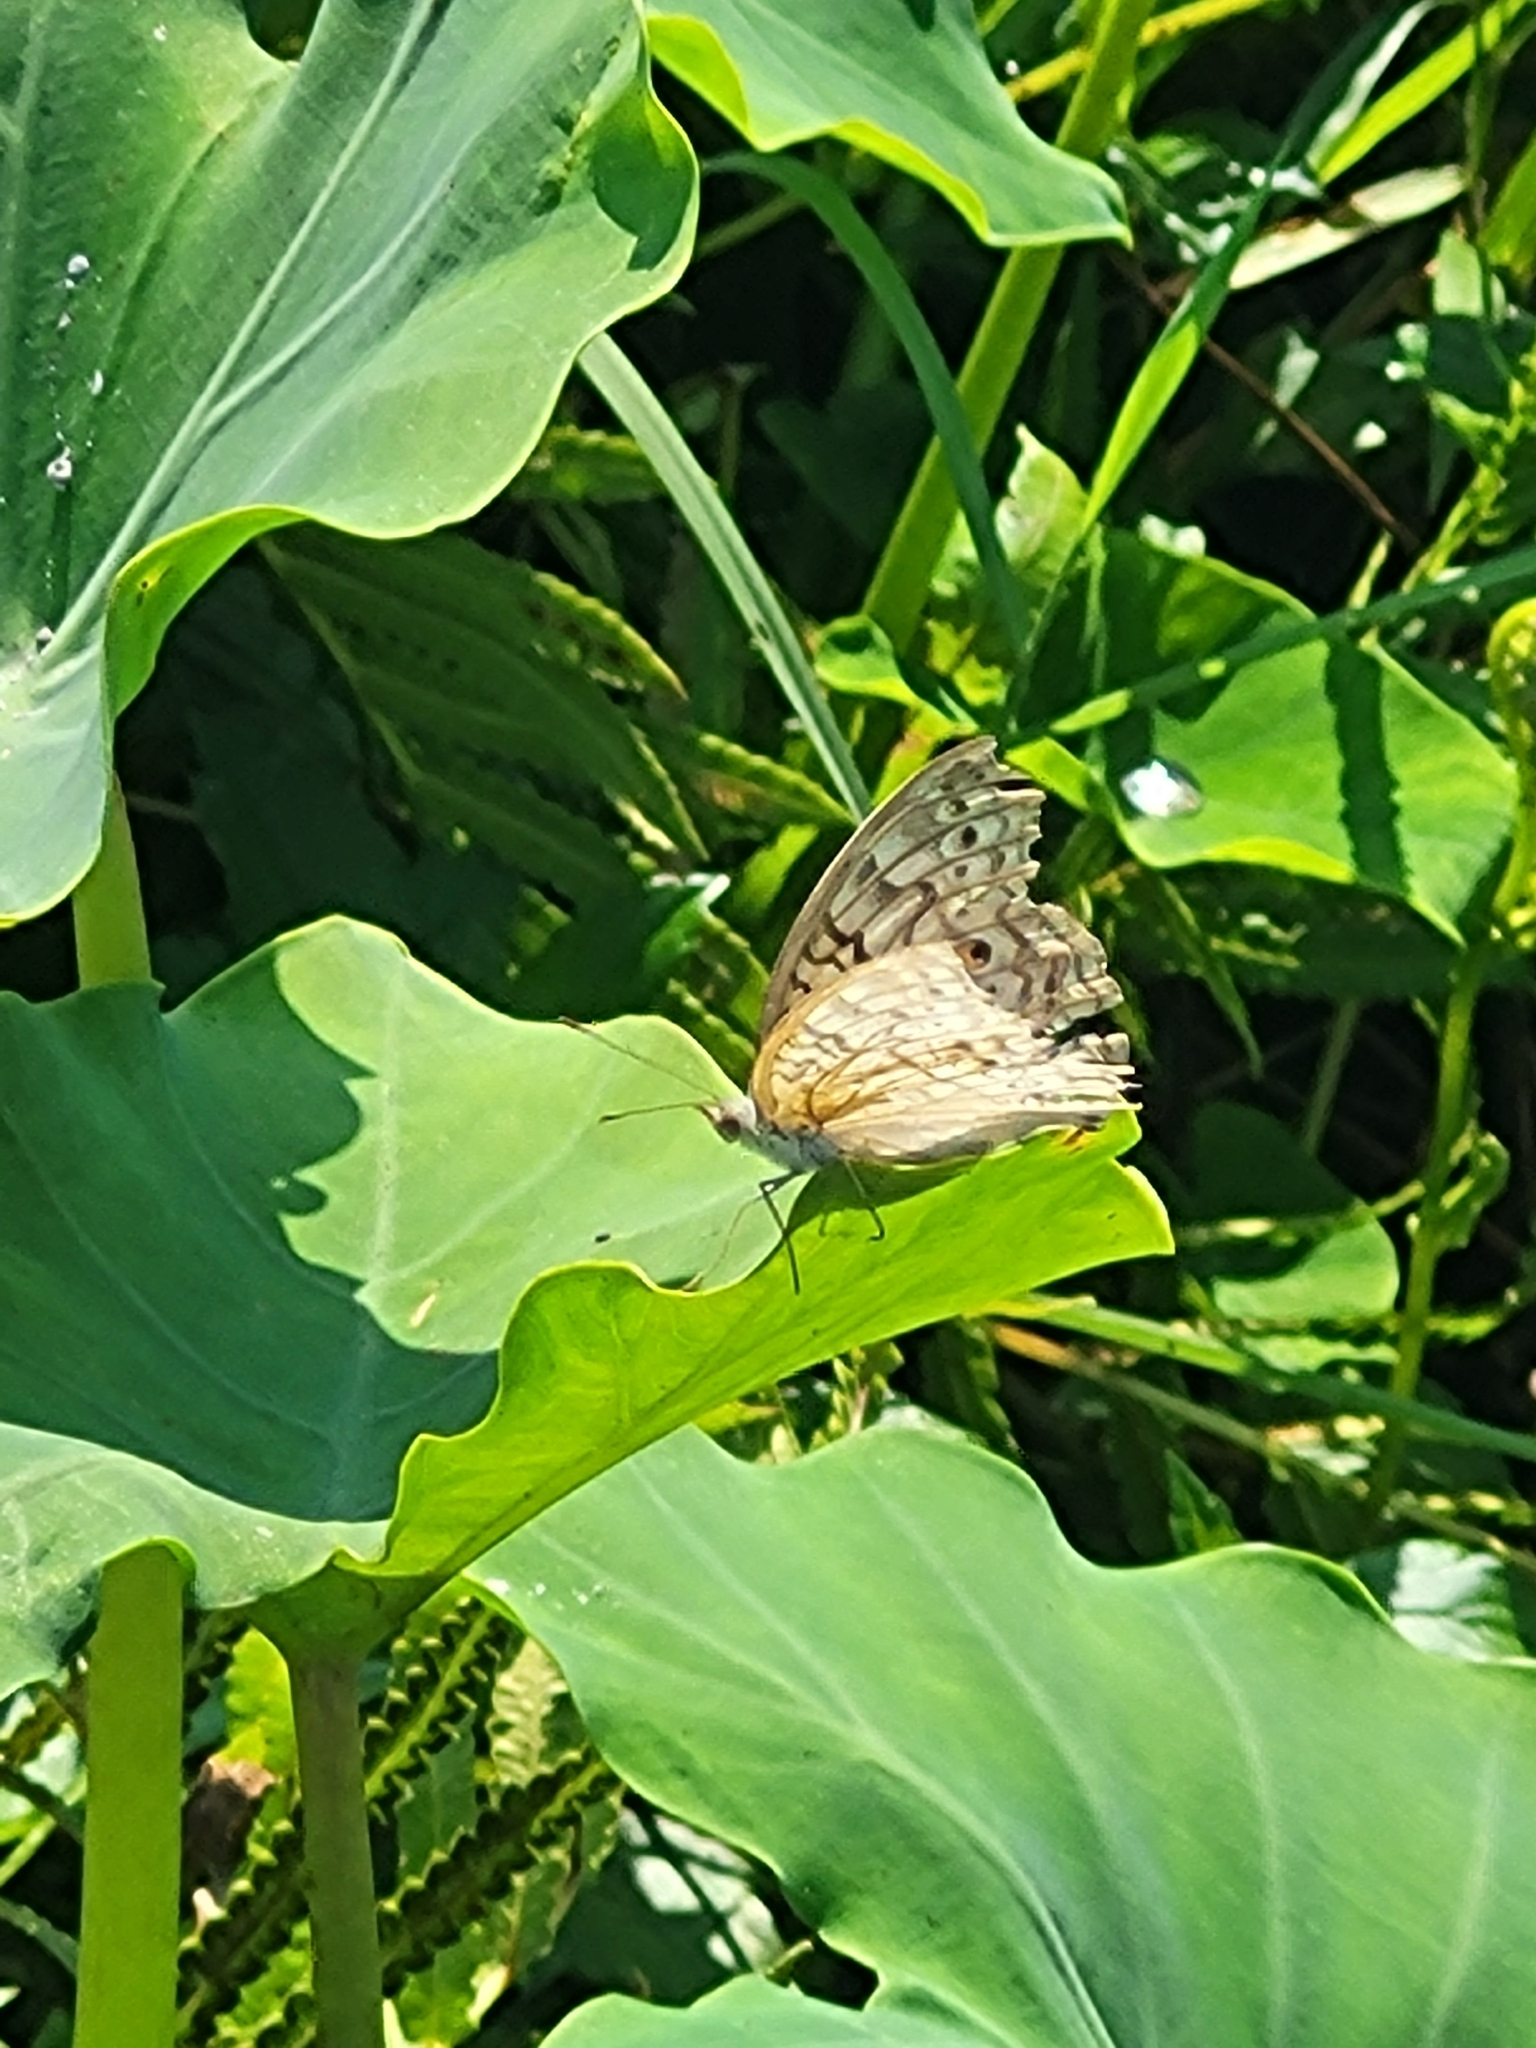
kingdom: Animalia
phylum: Arthropoda
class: Insecta
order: Lepidoptera
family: Nymphalidae
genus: Junonia
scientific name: Junonia atlites
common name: Grey pansy
